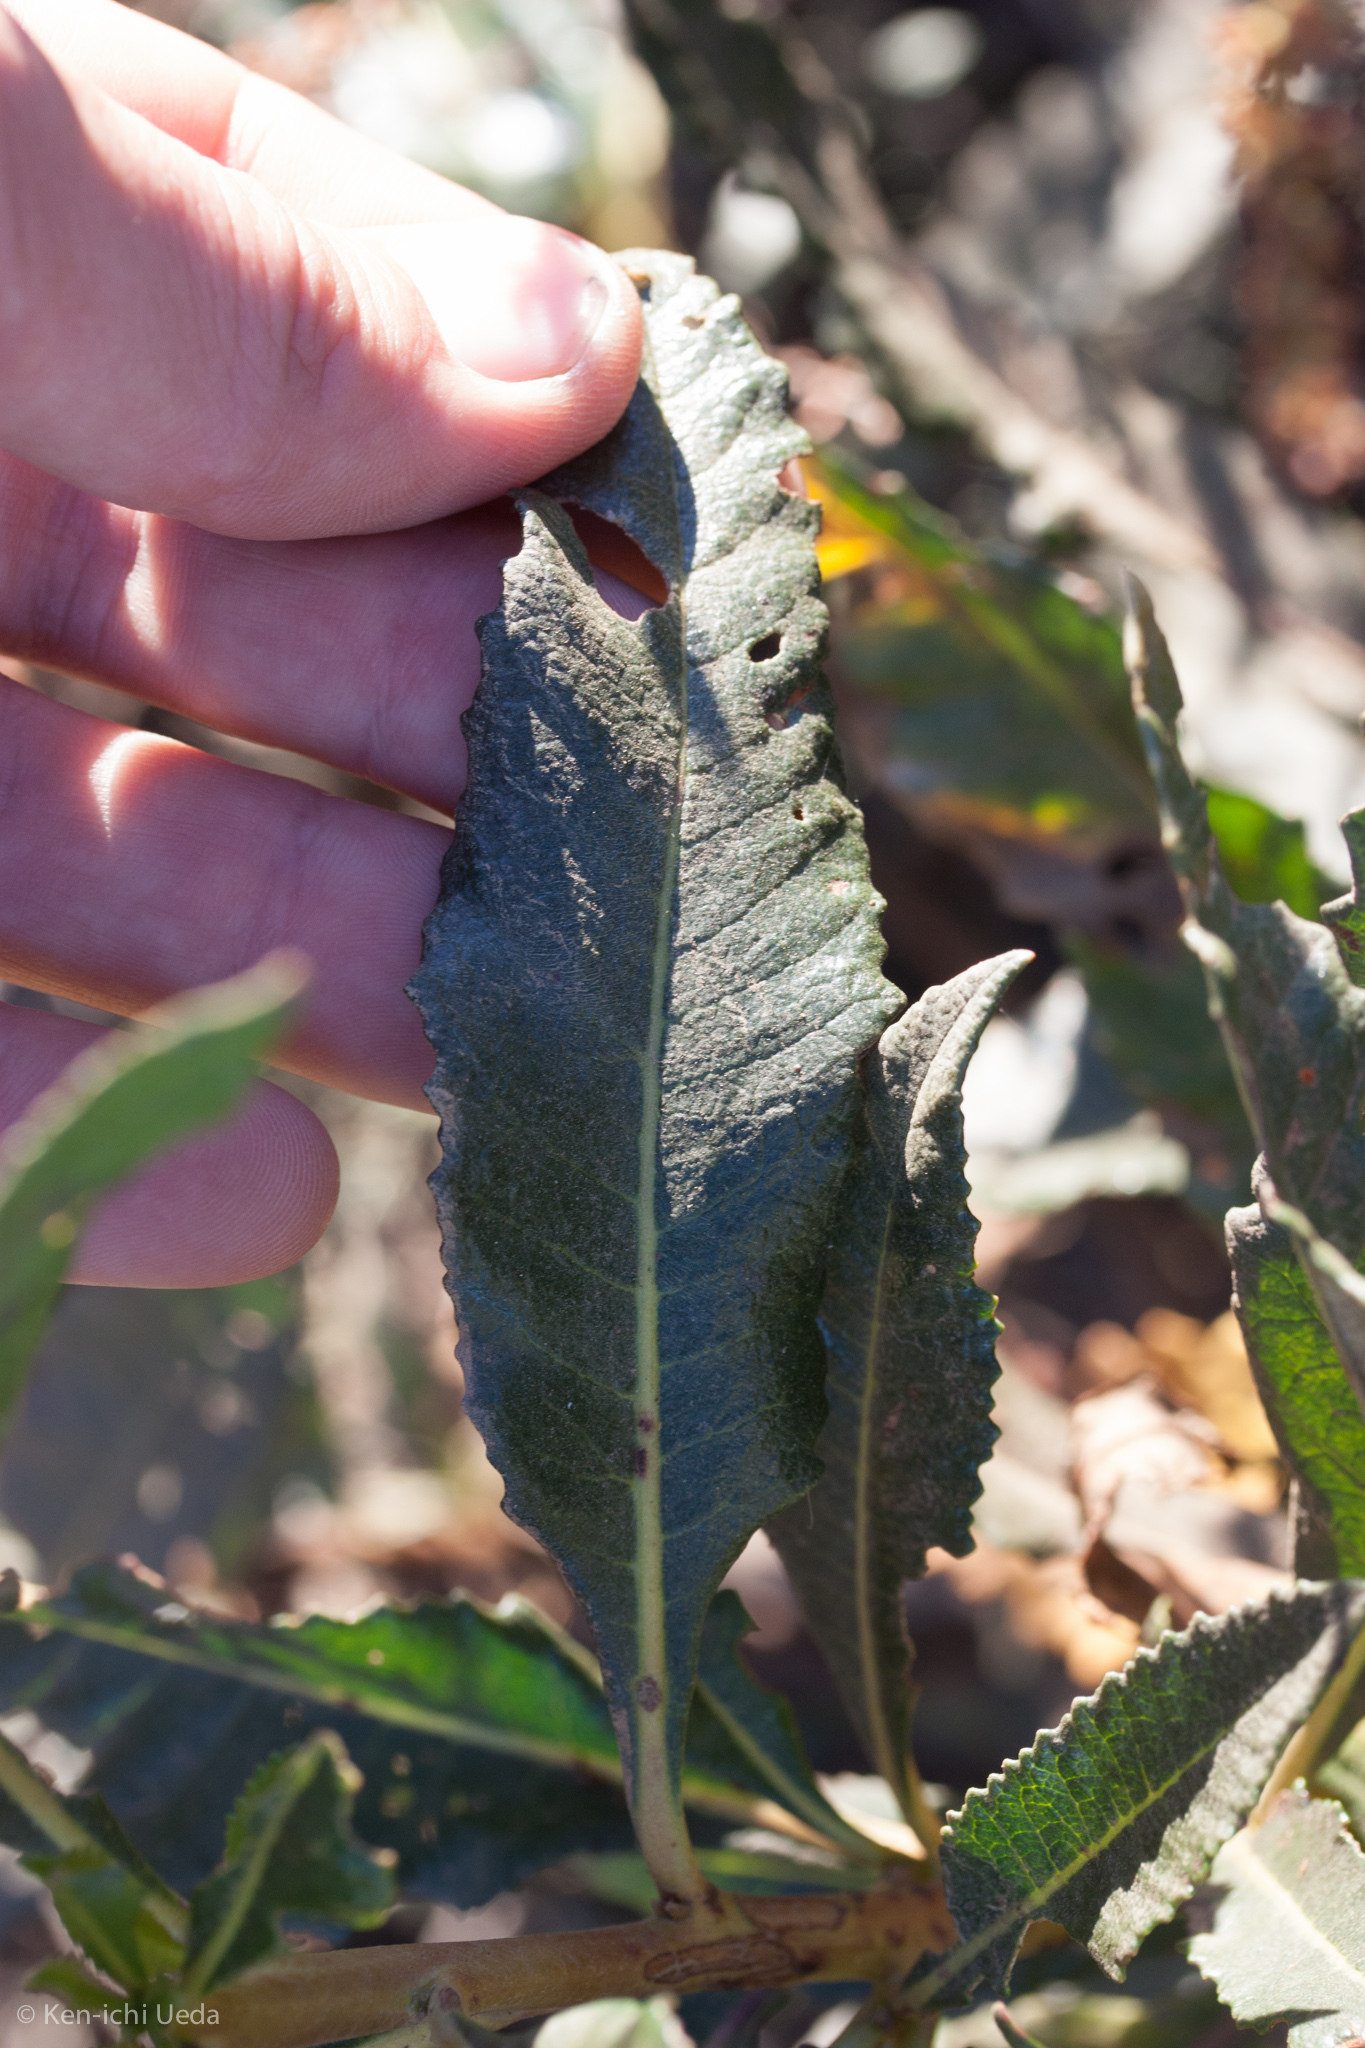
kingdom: Plantae
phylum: Tracheophyta
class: Magnoliopsida
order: Boraginales
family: Namaceae
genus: Eriodictyon
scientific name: Eriodictyon californicum
